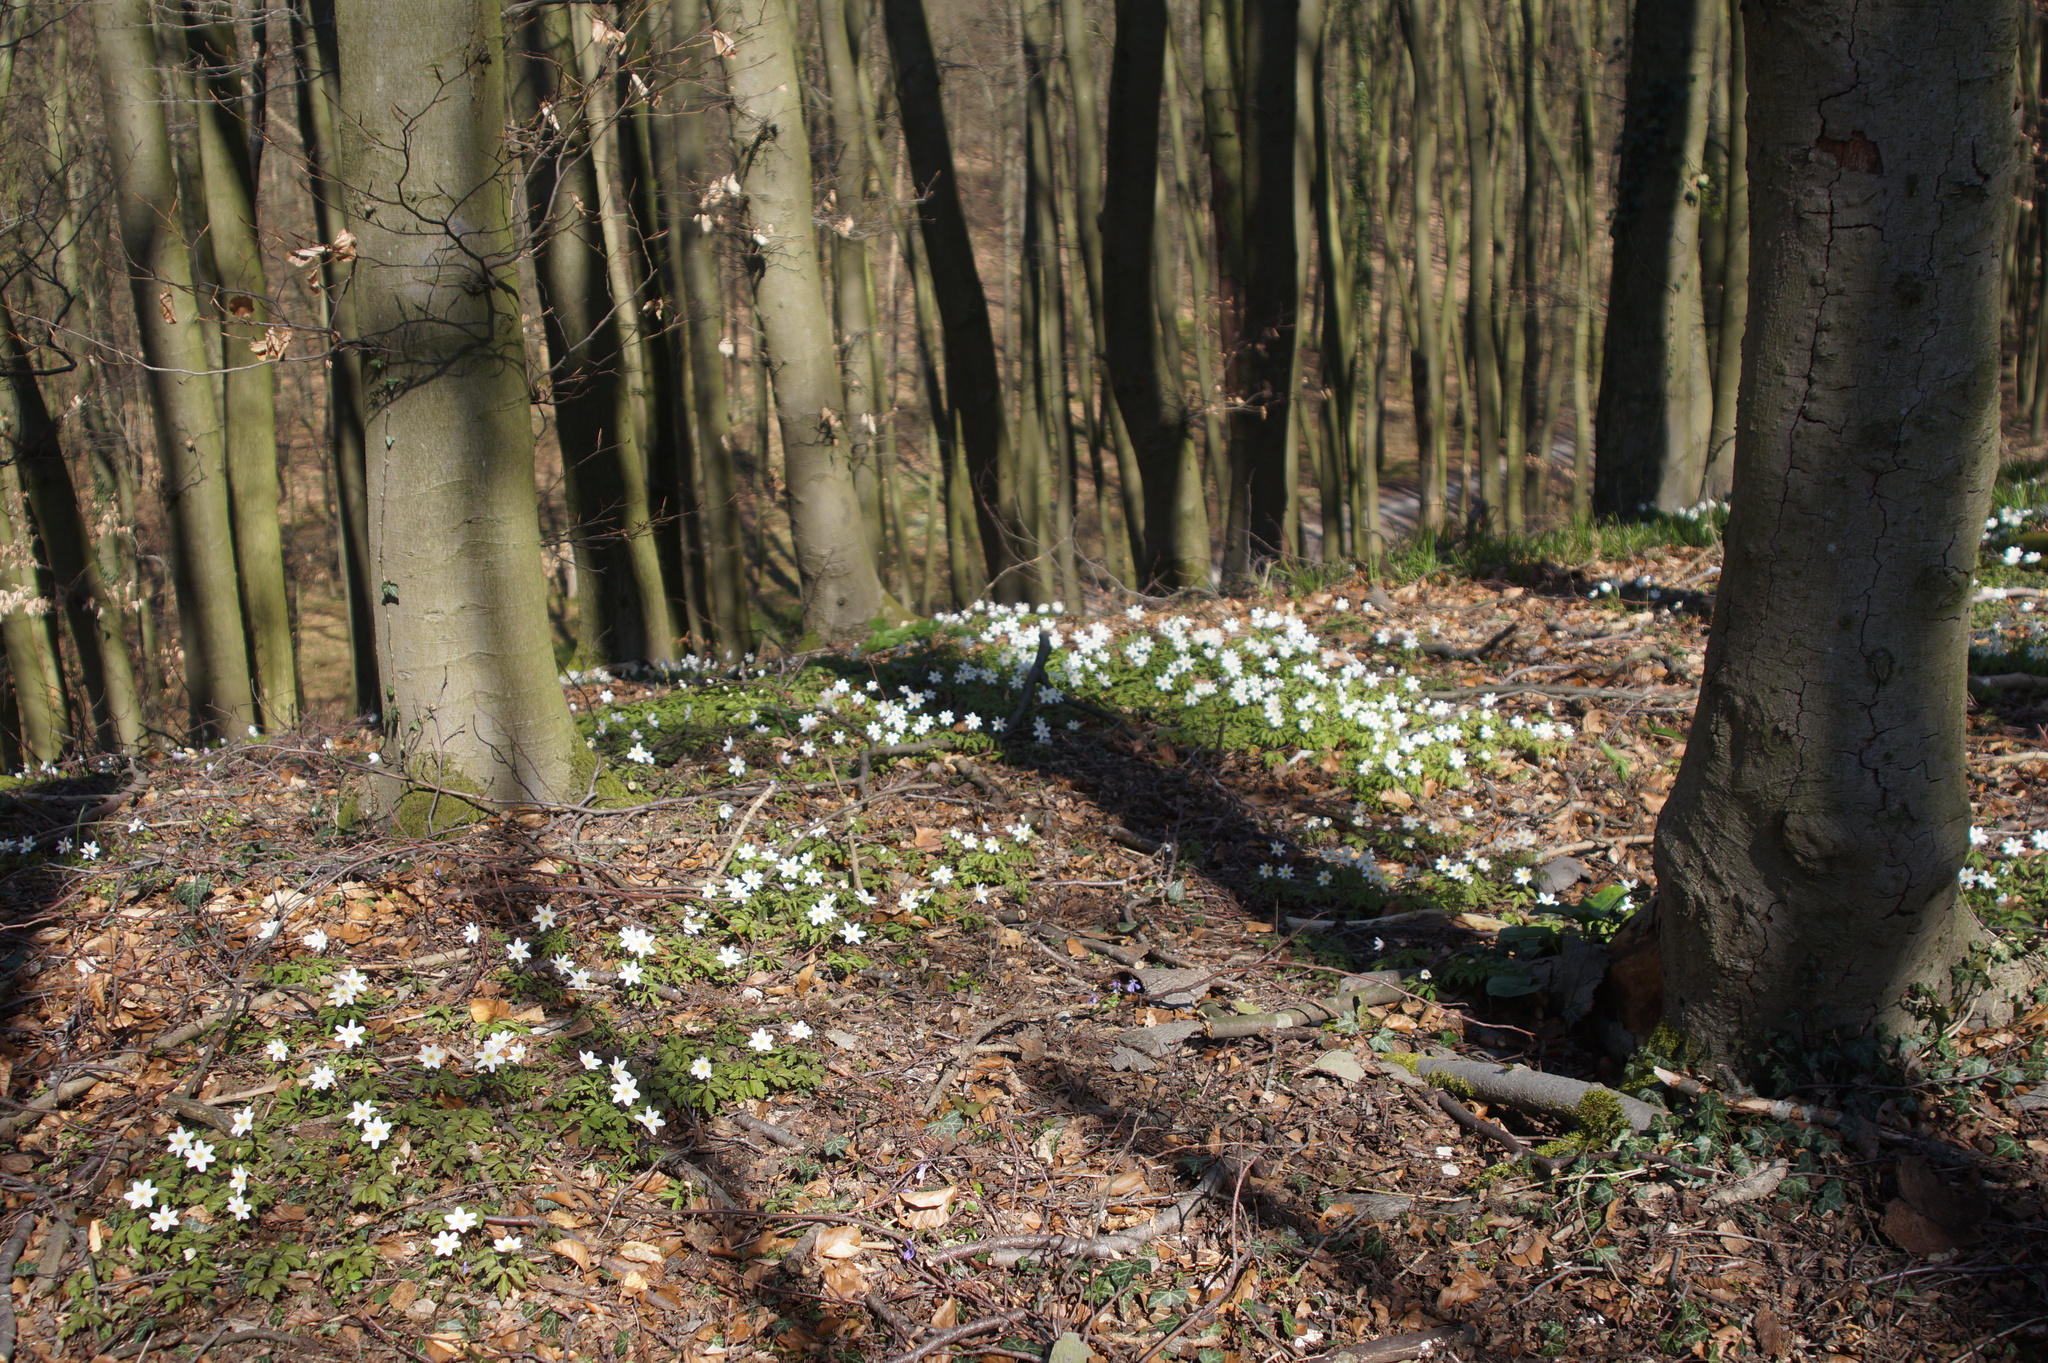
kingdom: Plantae
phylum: Tracheophyta
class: Magnoliopsida
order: Ranunculales
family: Ranunculaceae
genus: Anemone
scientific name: Anemone nemorosa
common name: Wood anemone
